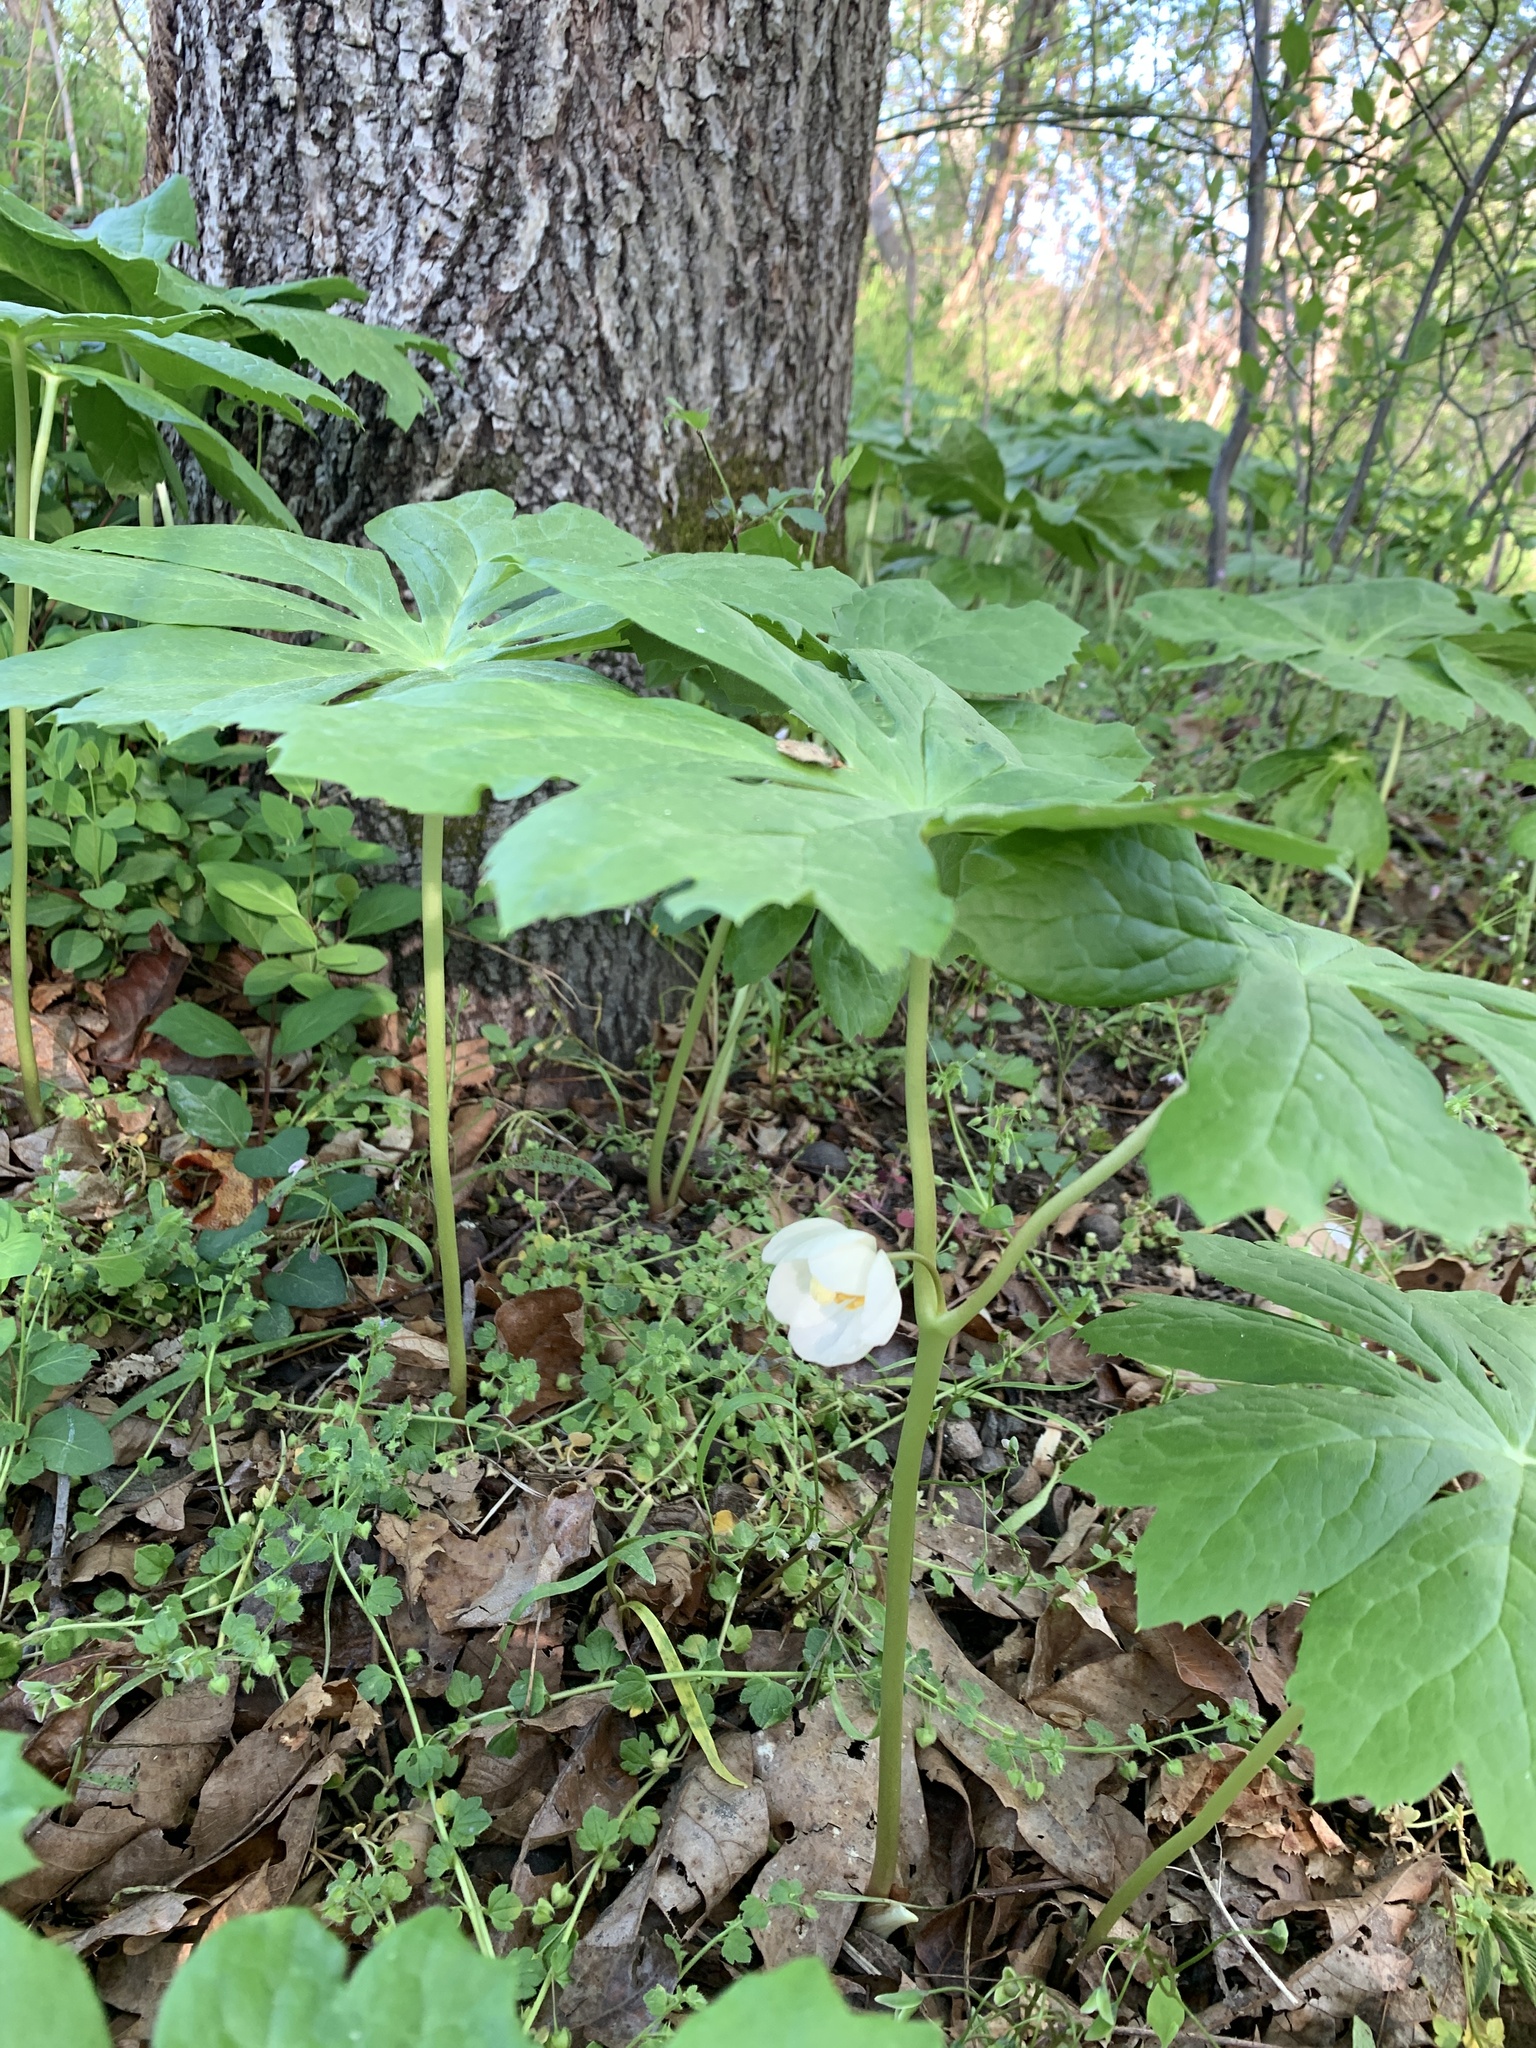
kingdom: Plantae
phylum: Tracheophyta
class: Magnoliopsida
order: Ranunculales
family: Berberidaceae
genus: Podophyllum
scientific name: Podophyllum peltatum
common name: Wild mandrake
